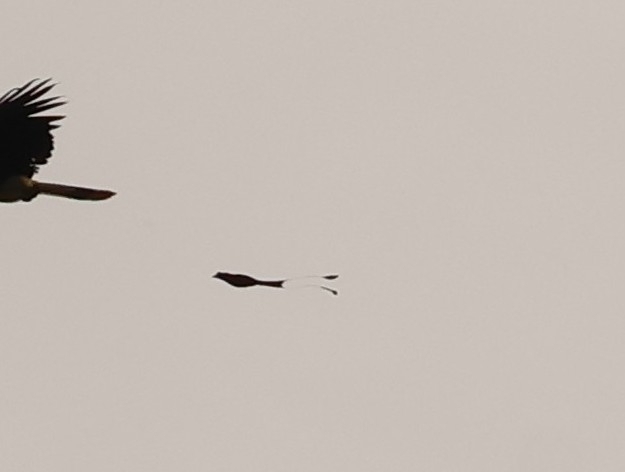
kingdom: Animalia
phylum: Chordata
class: Aves
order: Passeriformes
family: Dicruridae
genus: Dicrurus
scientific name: Dicrurus paradiseus
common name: Greater racket-tailed drongo
